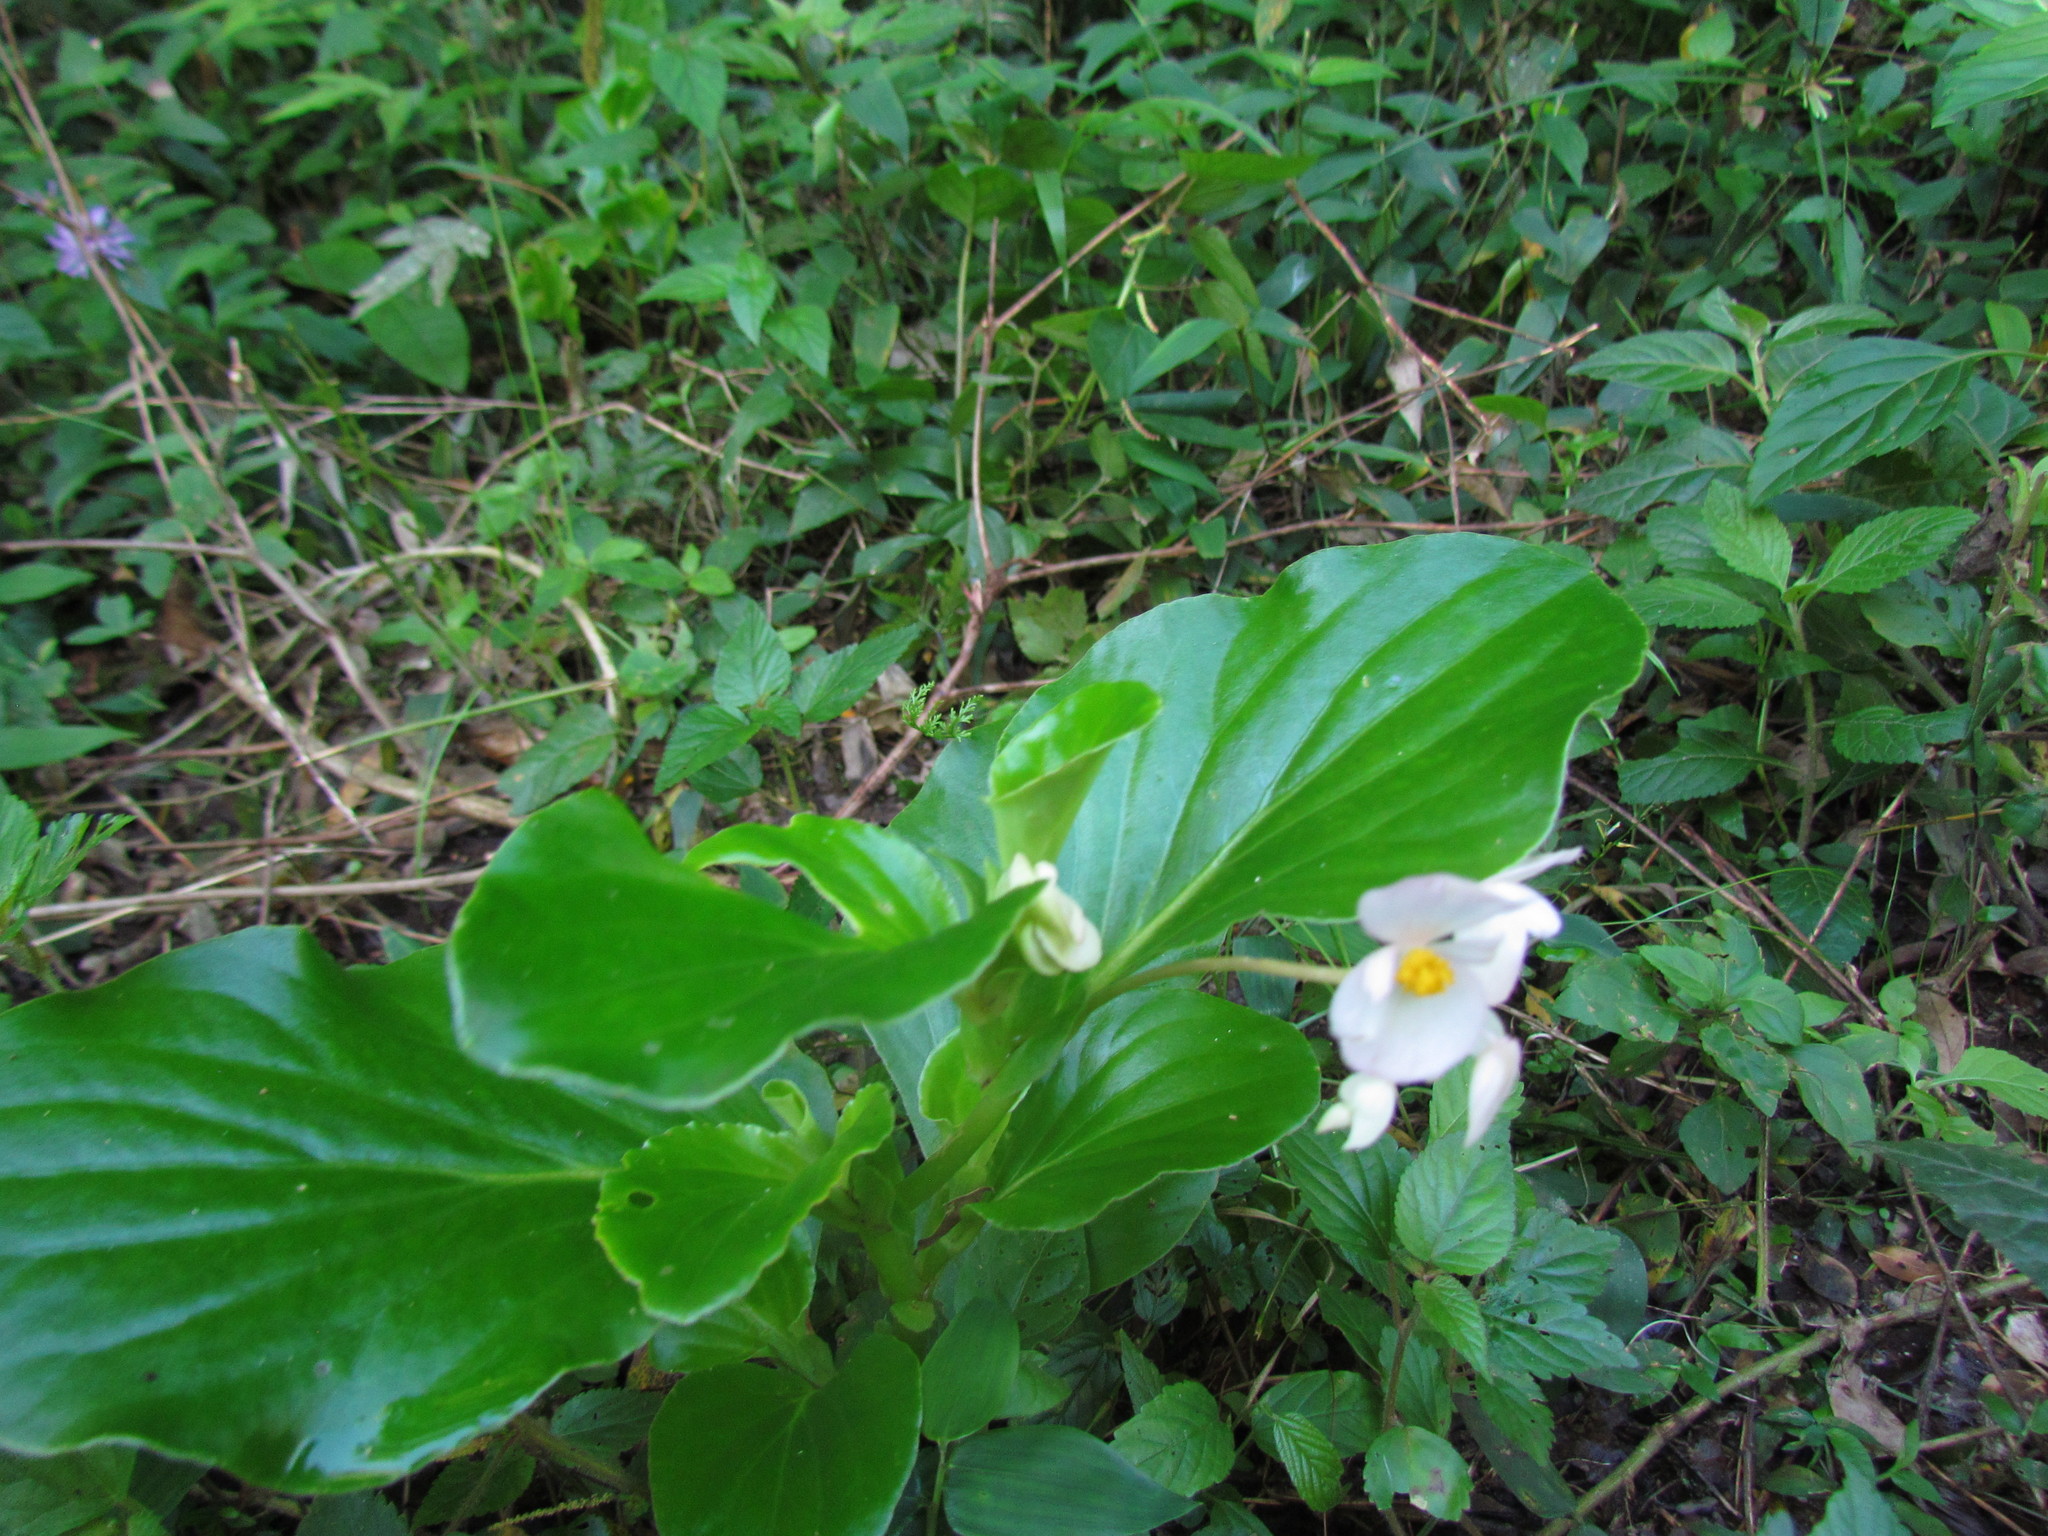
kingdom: Plantae
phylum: Tracheophyta
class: Magnoliopsida
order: Cucurbitales
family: Begoniaceae
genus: Begonia
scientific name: Begonia cucullata
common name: Clubbed begonia
